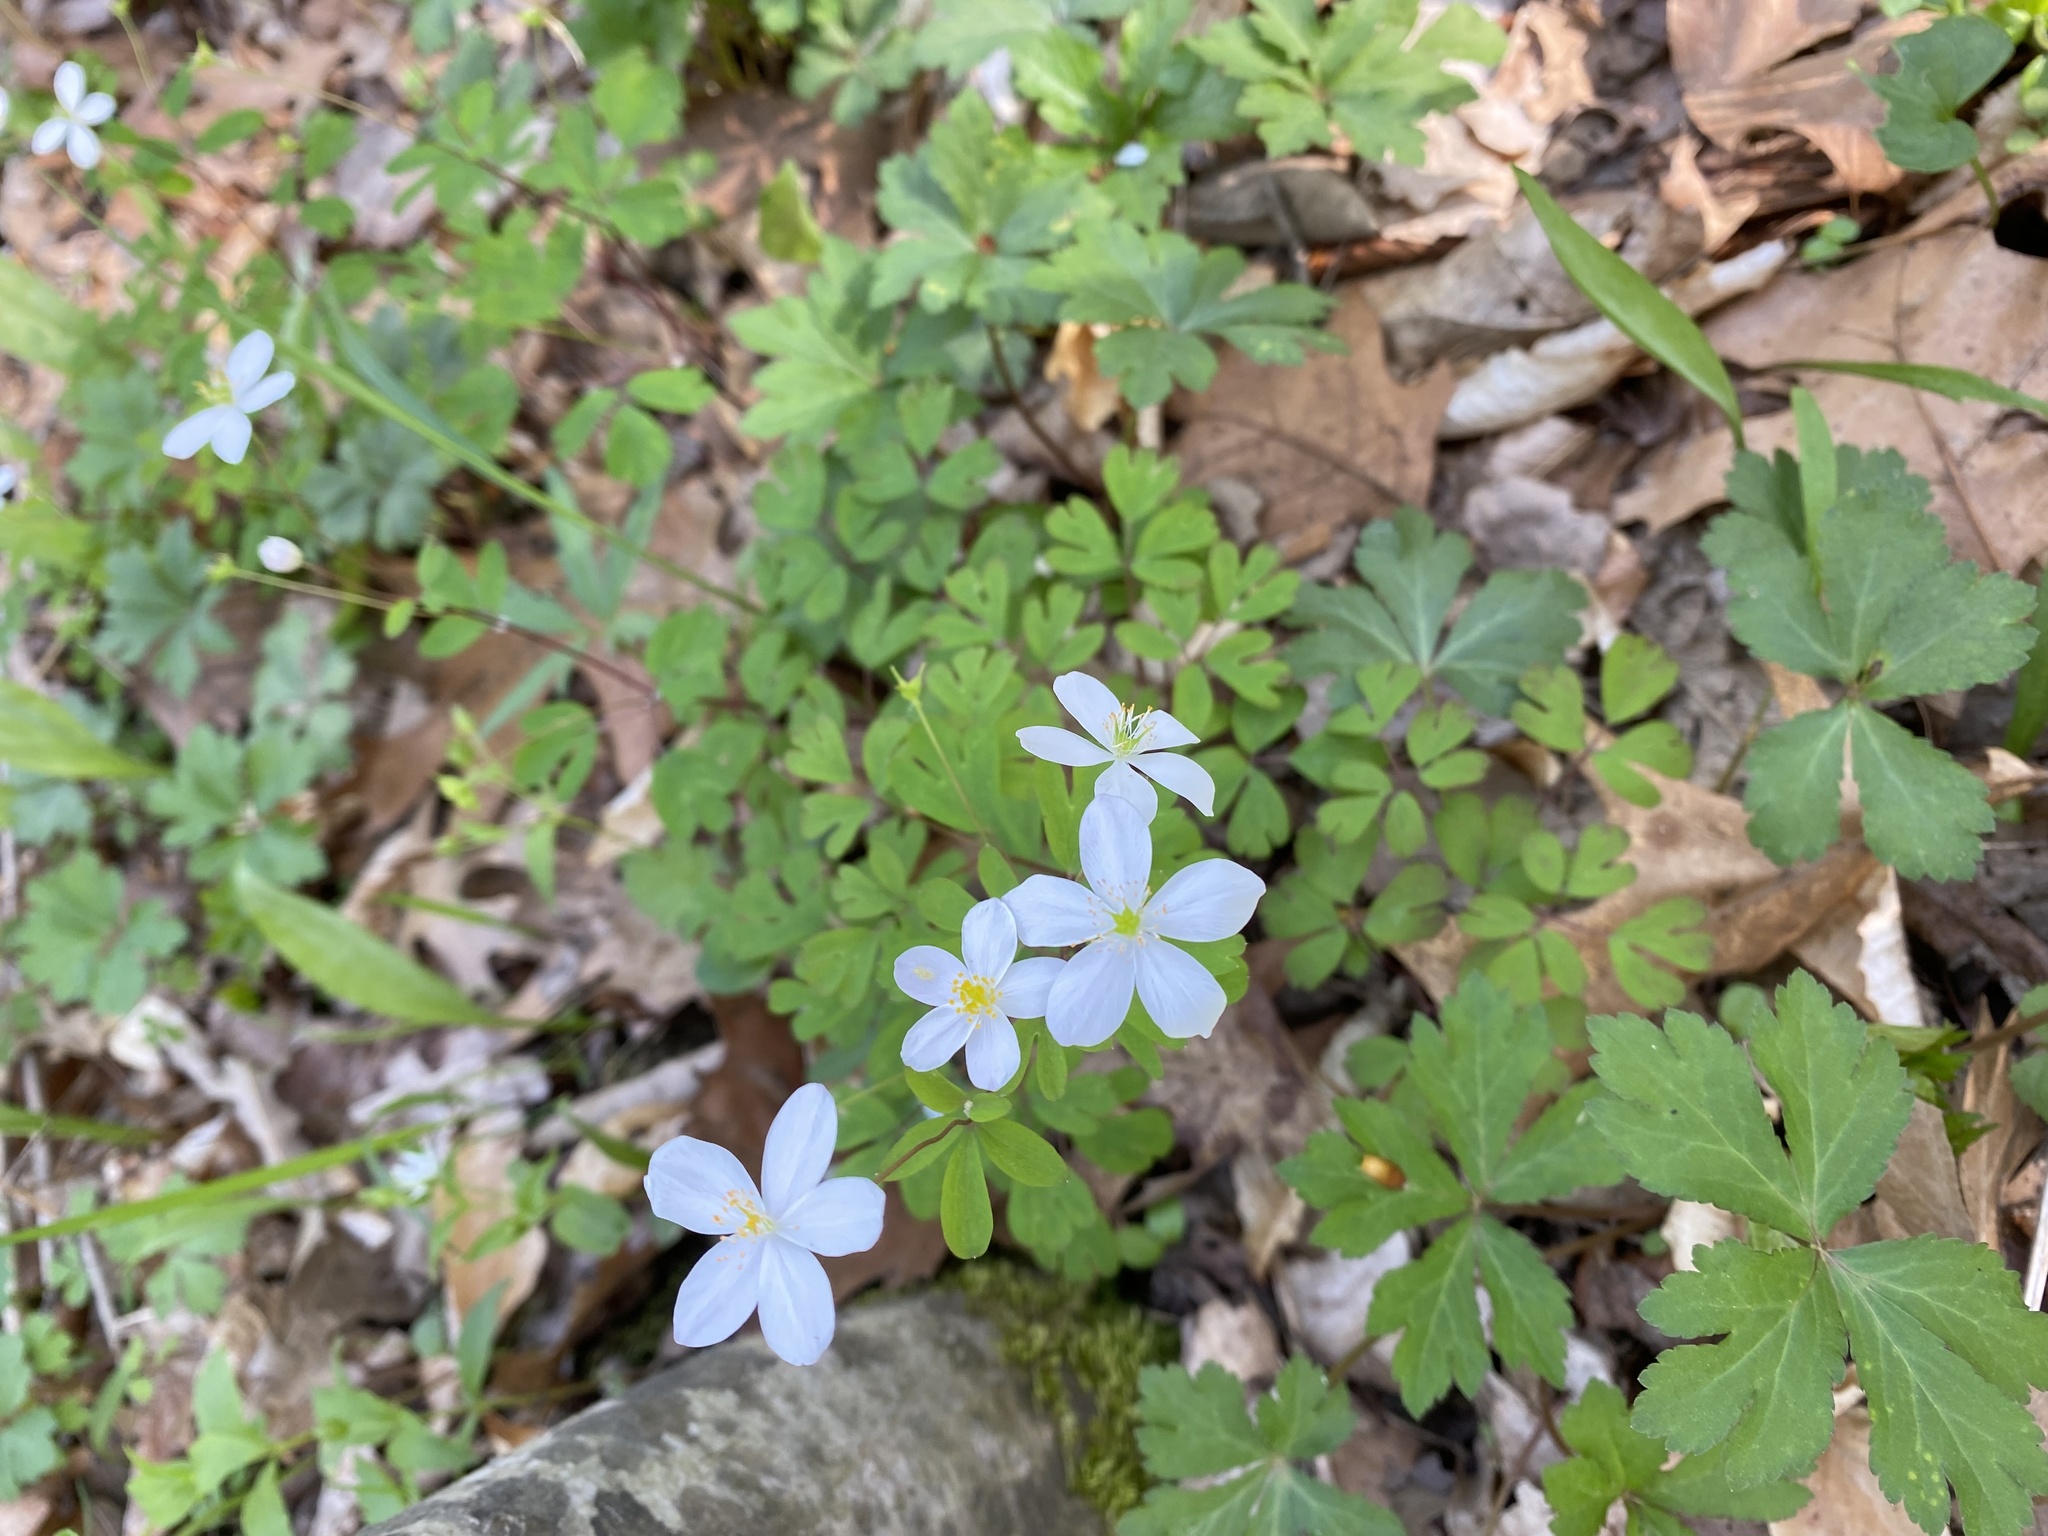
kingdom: Plantae
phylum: Tracheophyta
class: Magnoliopsida
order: Ranunculales
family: Ranunculaceae
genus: Enemion
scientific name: Enemion biternatum
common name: Eastern false rue-anemone
